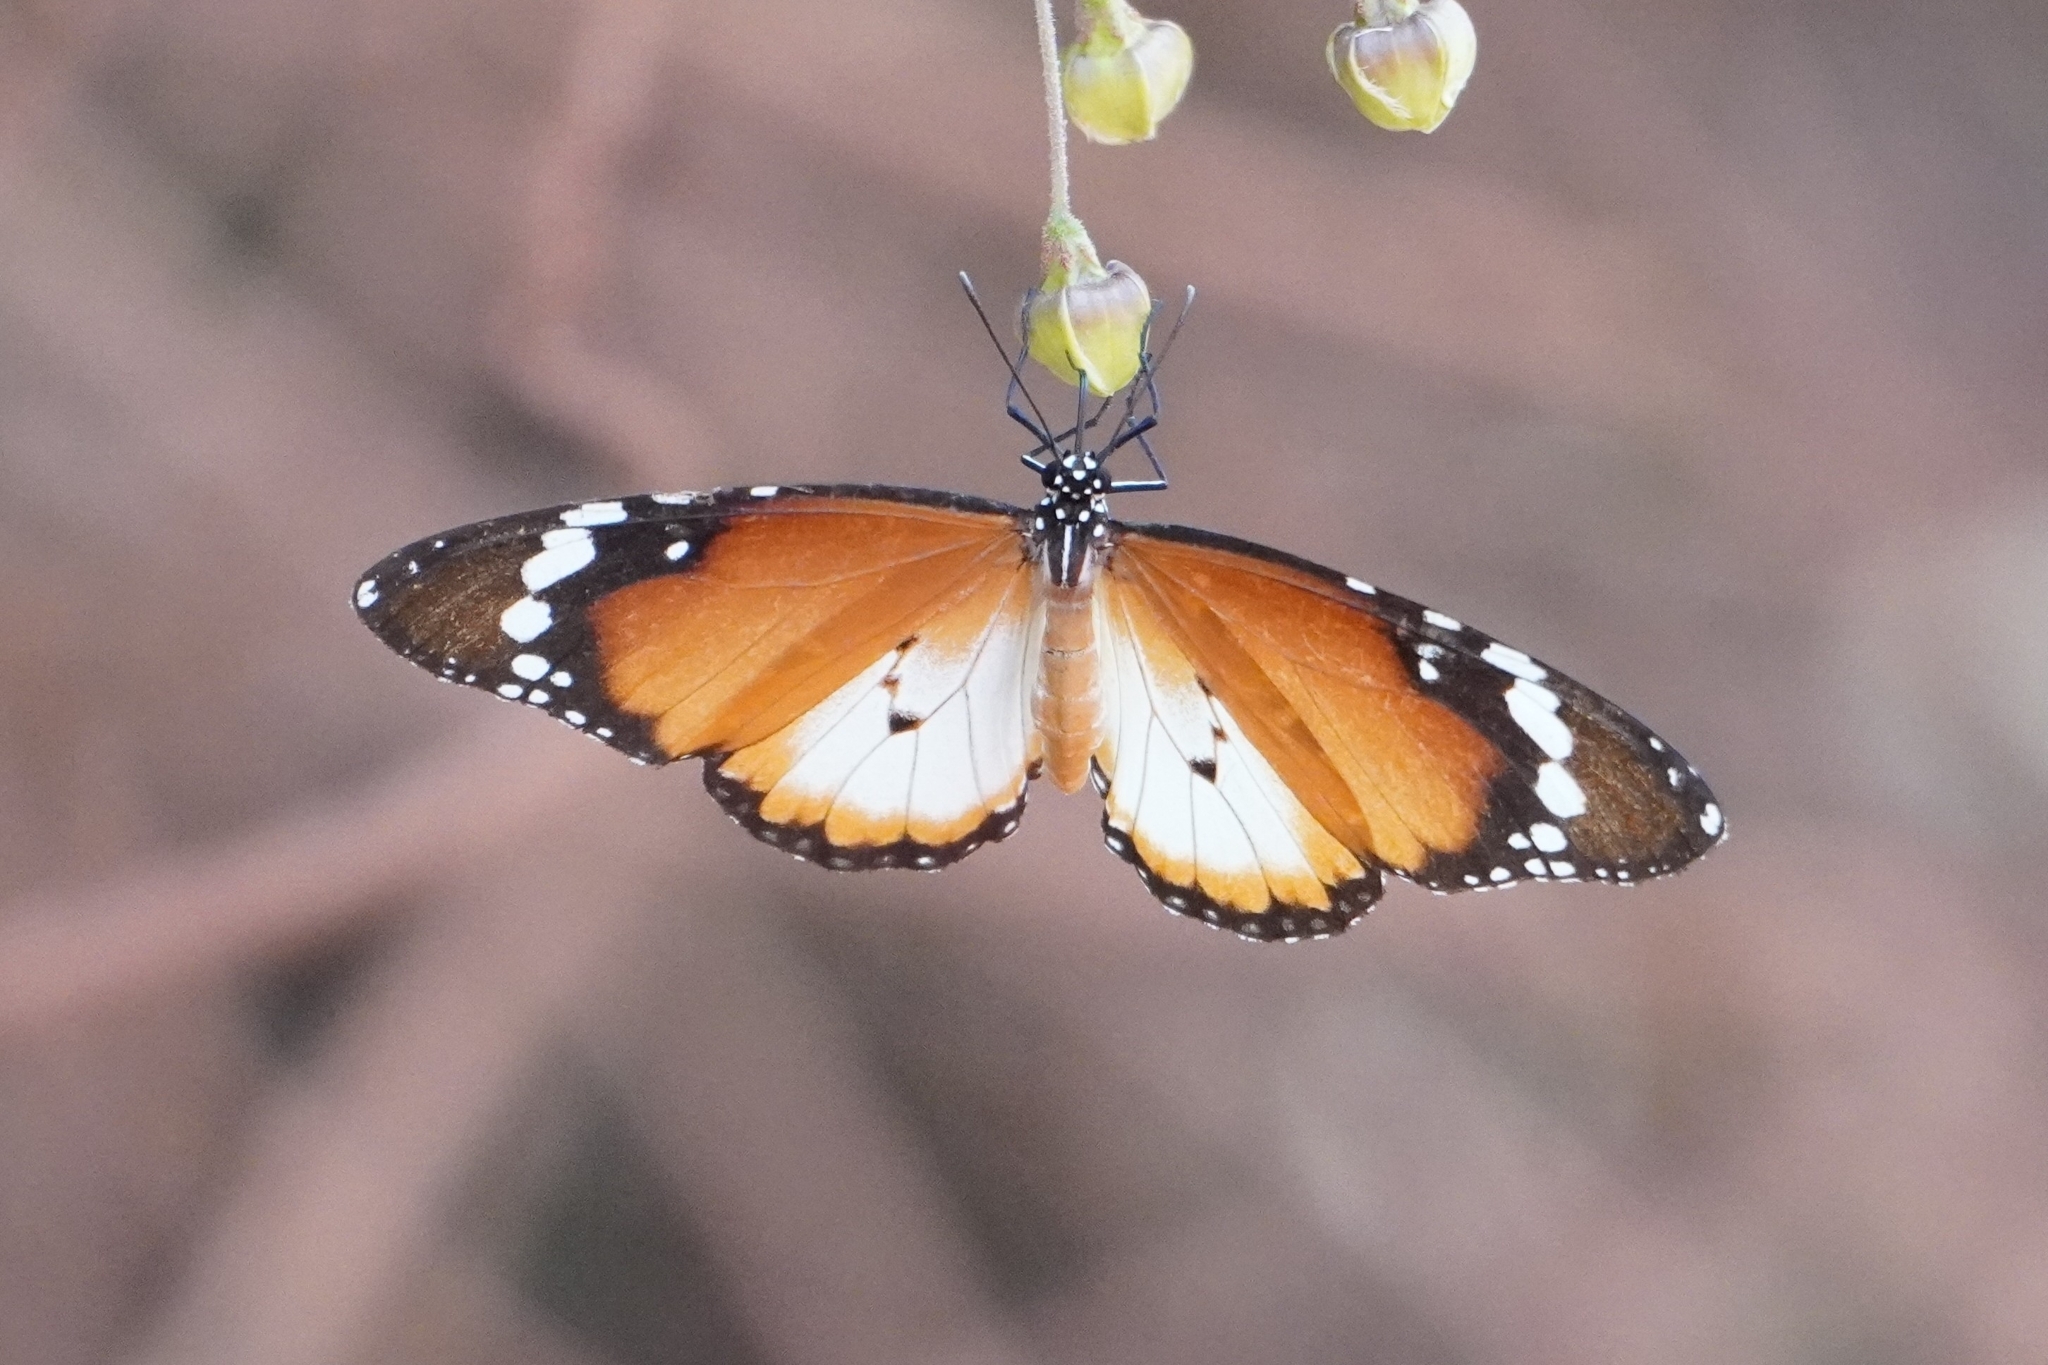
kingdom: Animalia
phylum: Arthropoda
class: Insecta
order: Lepidoptera
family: Nymphalidae
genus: Danaus
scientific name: Danaus chrysippus
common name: Plain tiger
